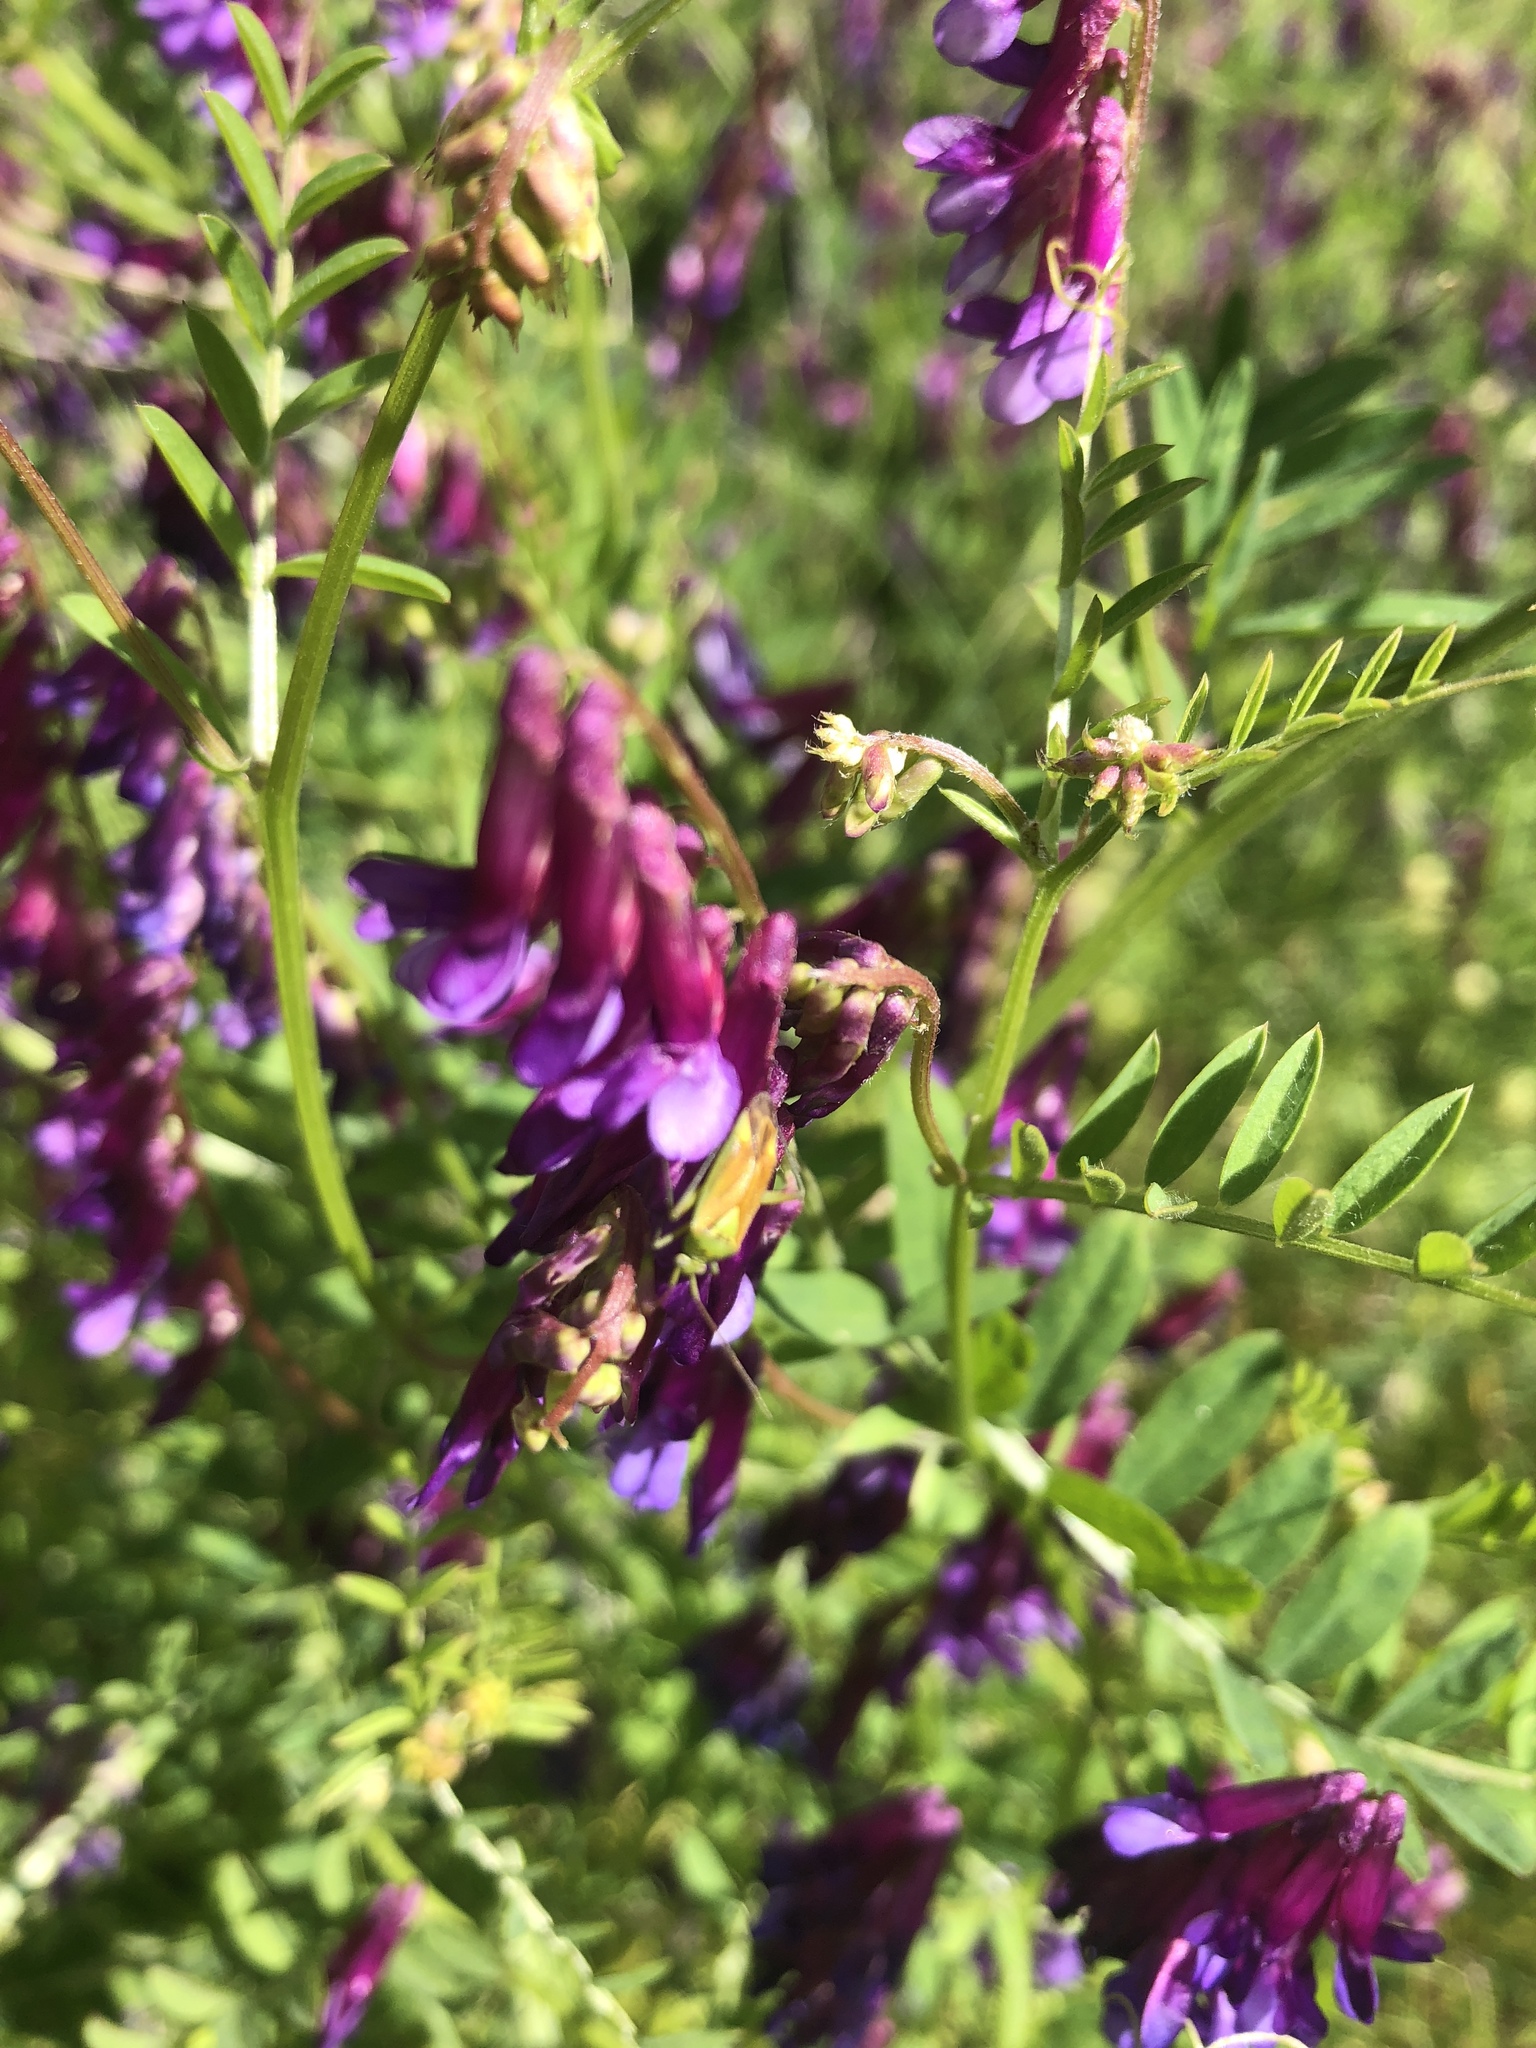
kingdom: Plantae
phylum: Tracheophyta
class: Magnoliopsida
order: Fabales
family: Fabaceae
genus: Vicia
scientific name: Vicia villosa
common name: Fodder vetch
